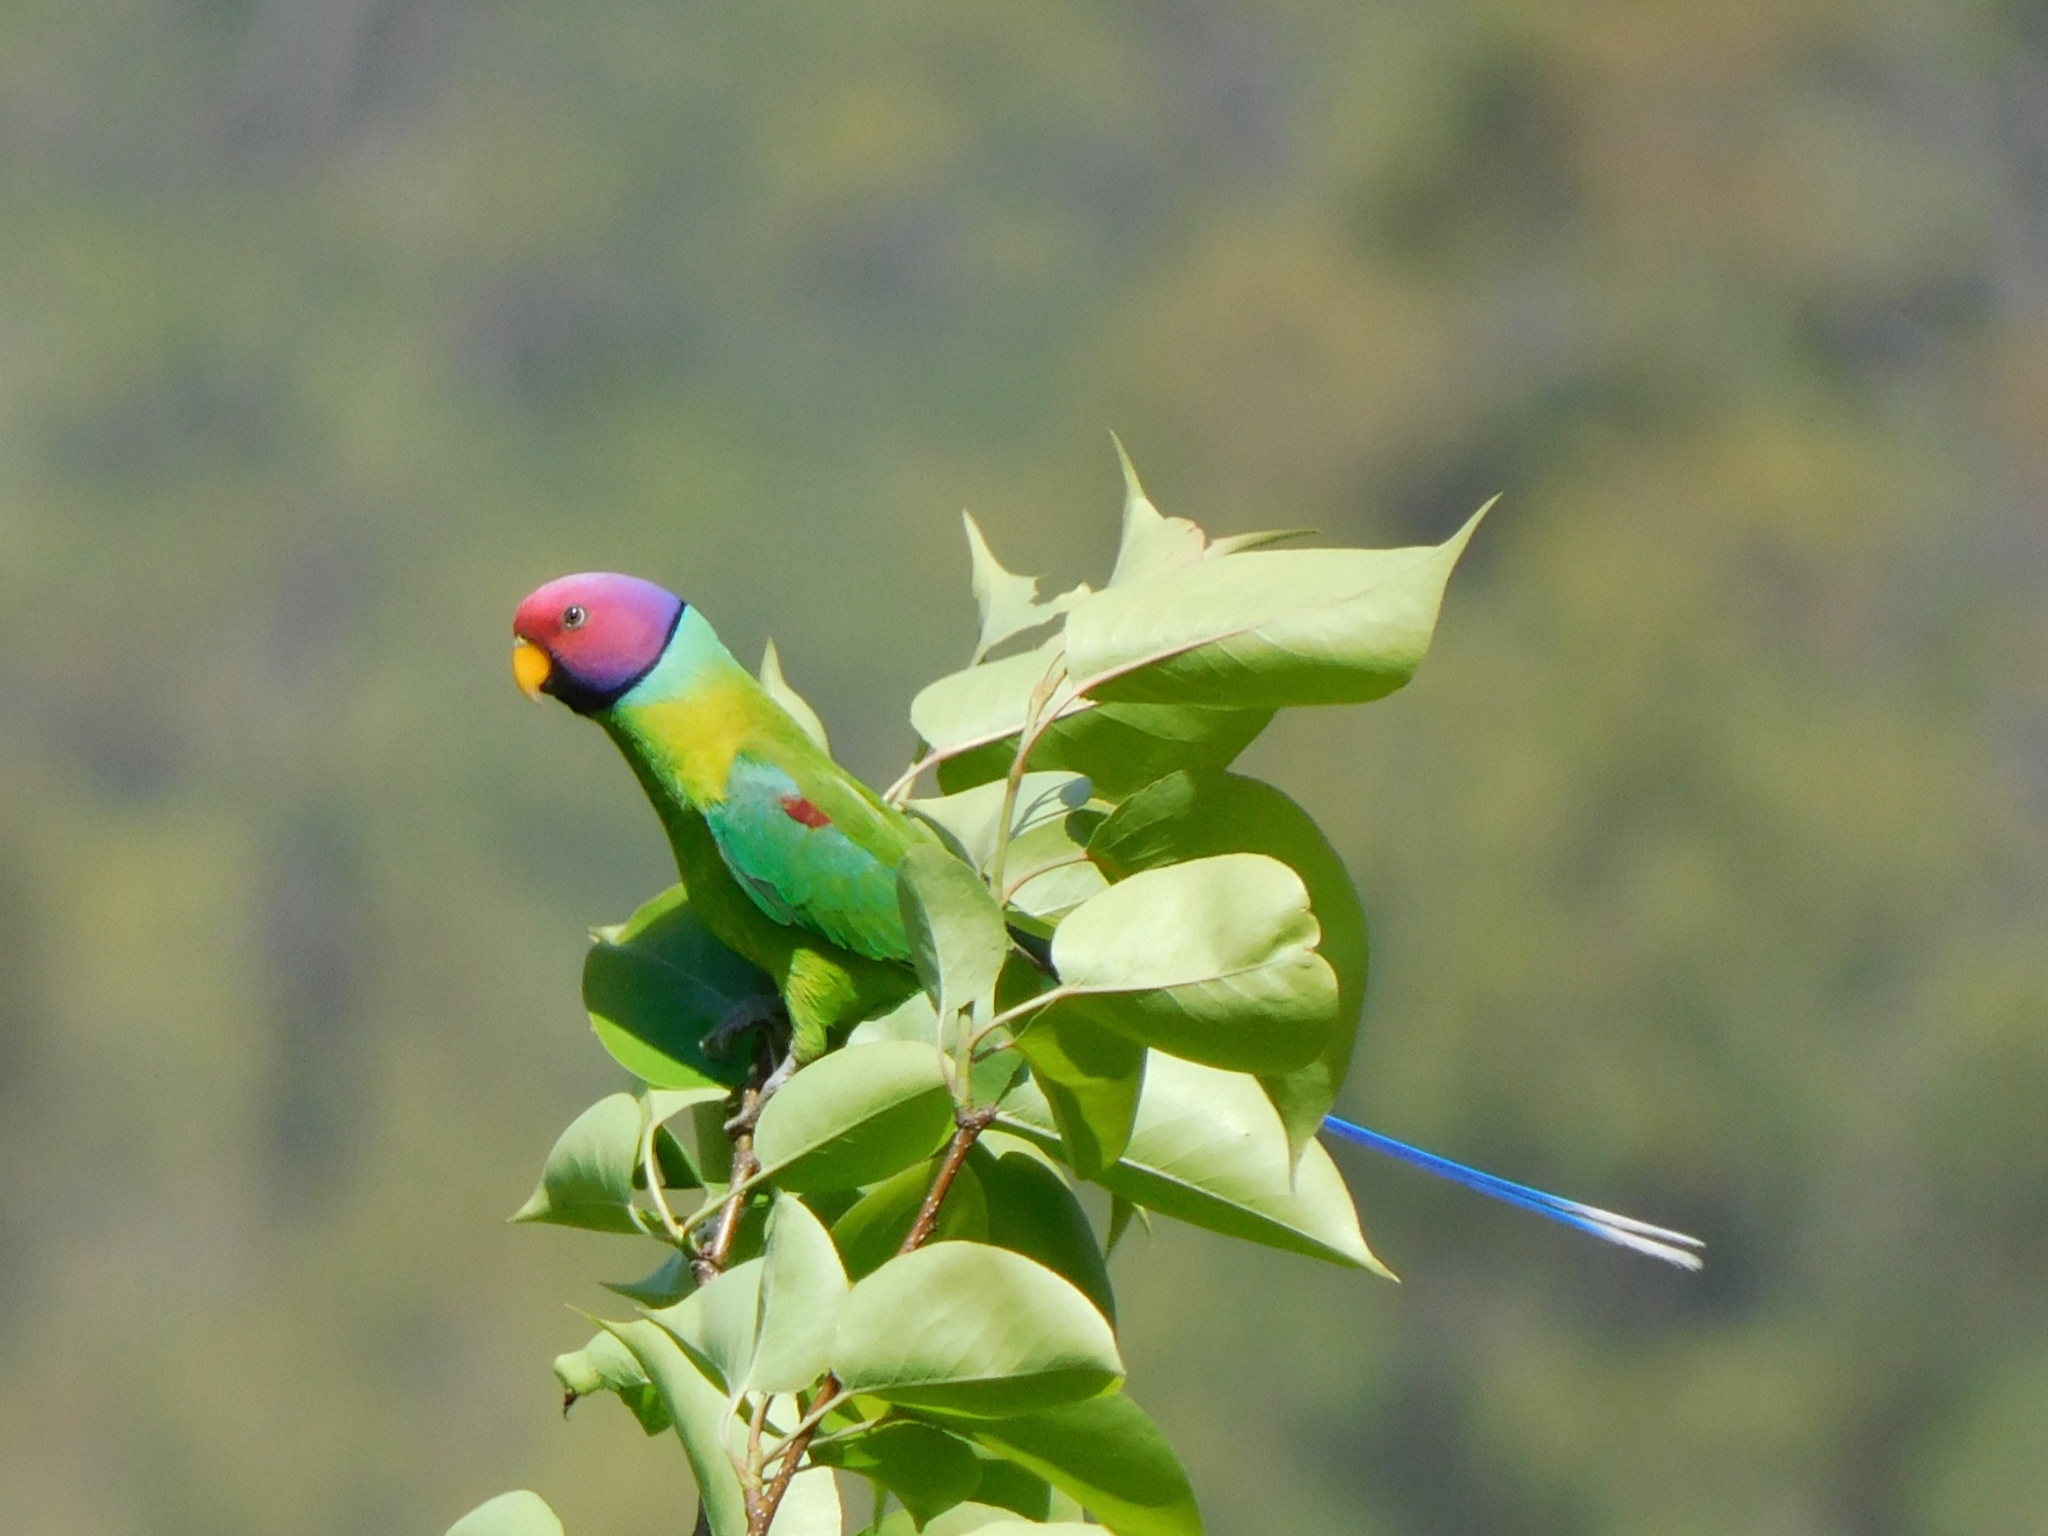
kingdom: Animalia
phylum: Chordata
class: Aves
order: Psittaciformes
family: Psittacidae
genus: Psittacula
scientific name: Psittacula cyanocephala
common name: Plum-headed parakeet
